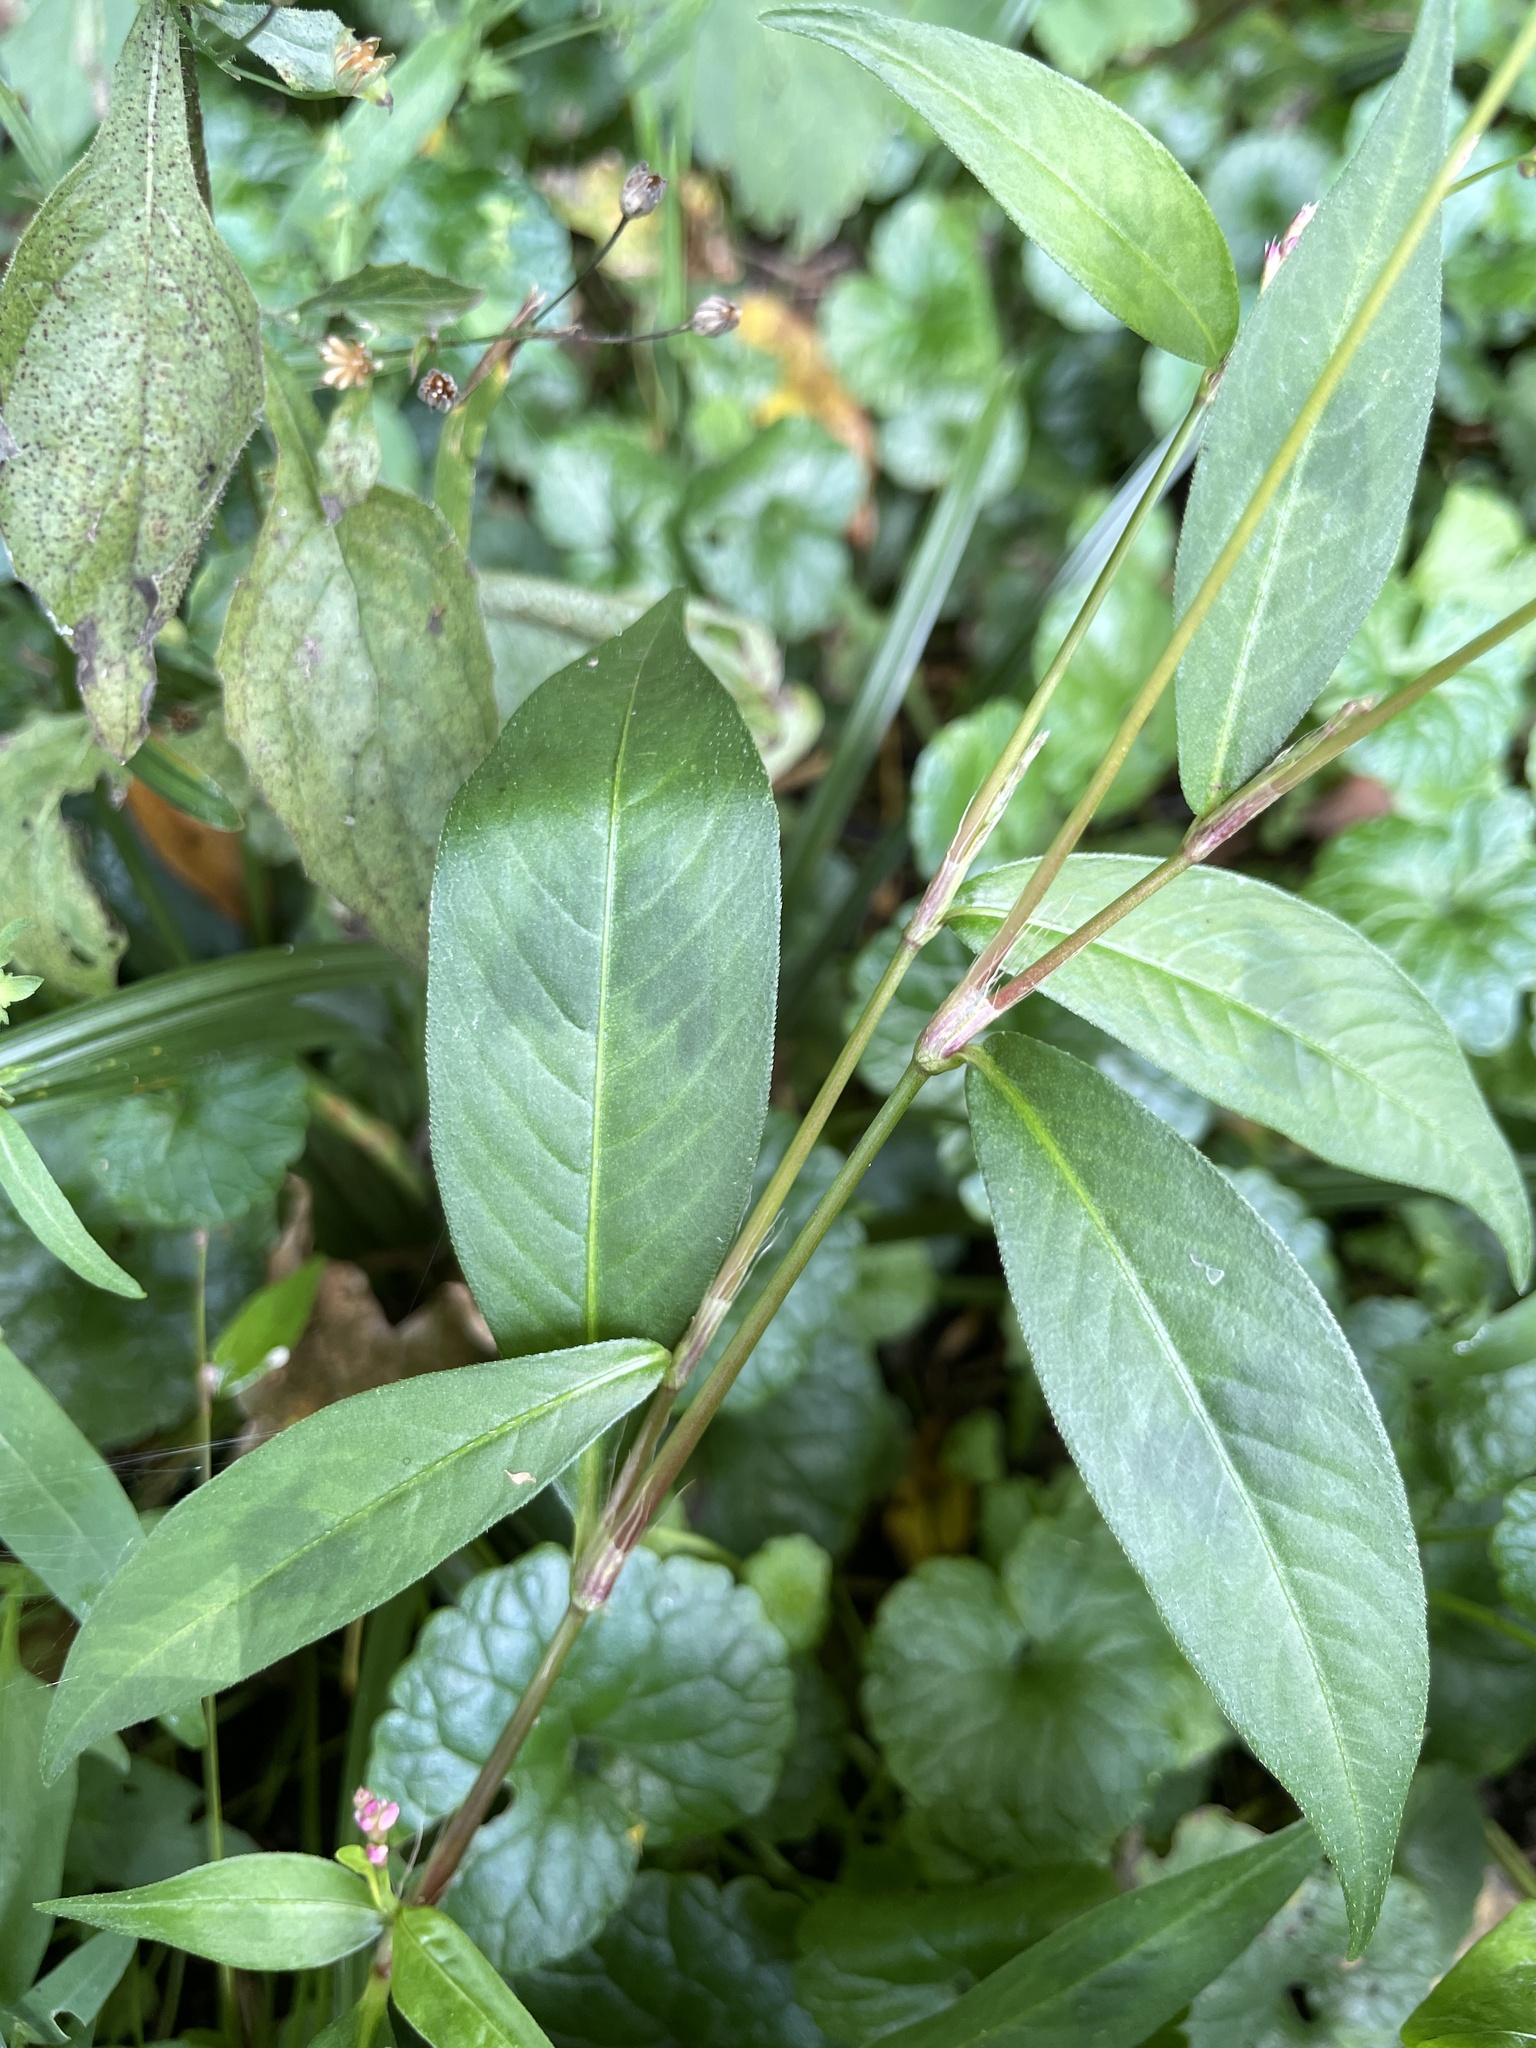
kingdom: Plantae
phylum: Tracheophyta
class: Magnoliopsida
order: Caryophyllales
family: Polygonaceae
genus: Persicaria
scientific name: Persicaria longiseta
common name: Bristly lady's-thumb
